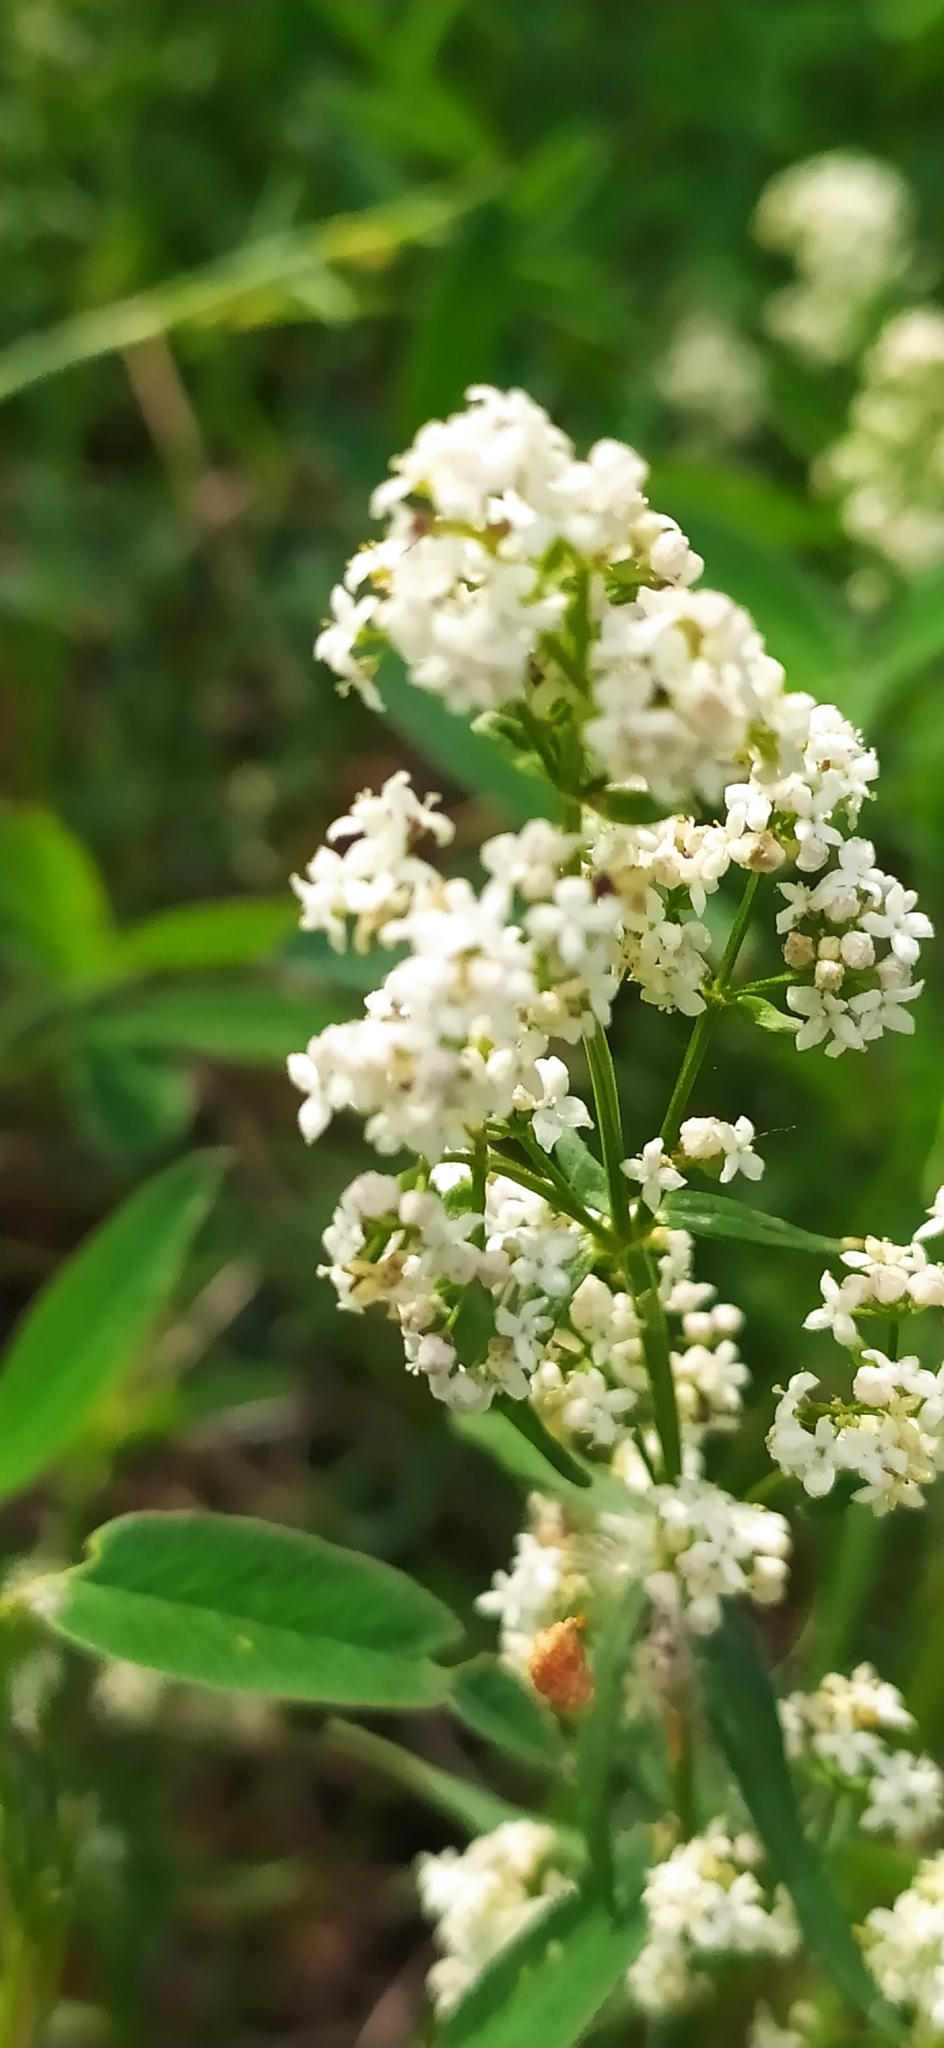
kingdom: Plantae
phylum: Tracheophyta
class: Magnoliopsida
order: Gentianales
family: Rubiaceae
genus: Galium
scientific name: Galium boreale
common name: Northern bedstraw
